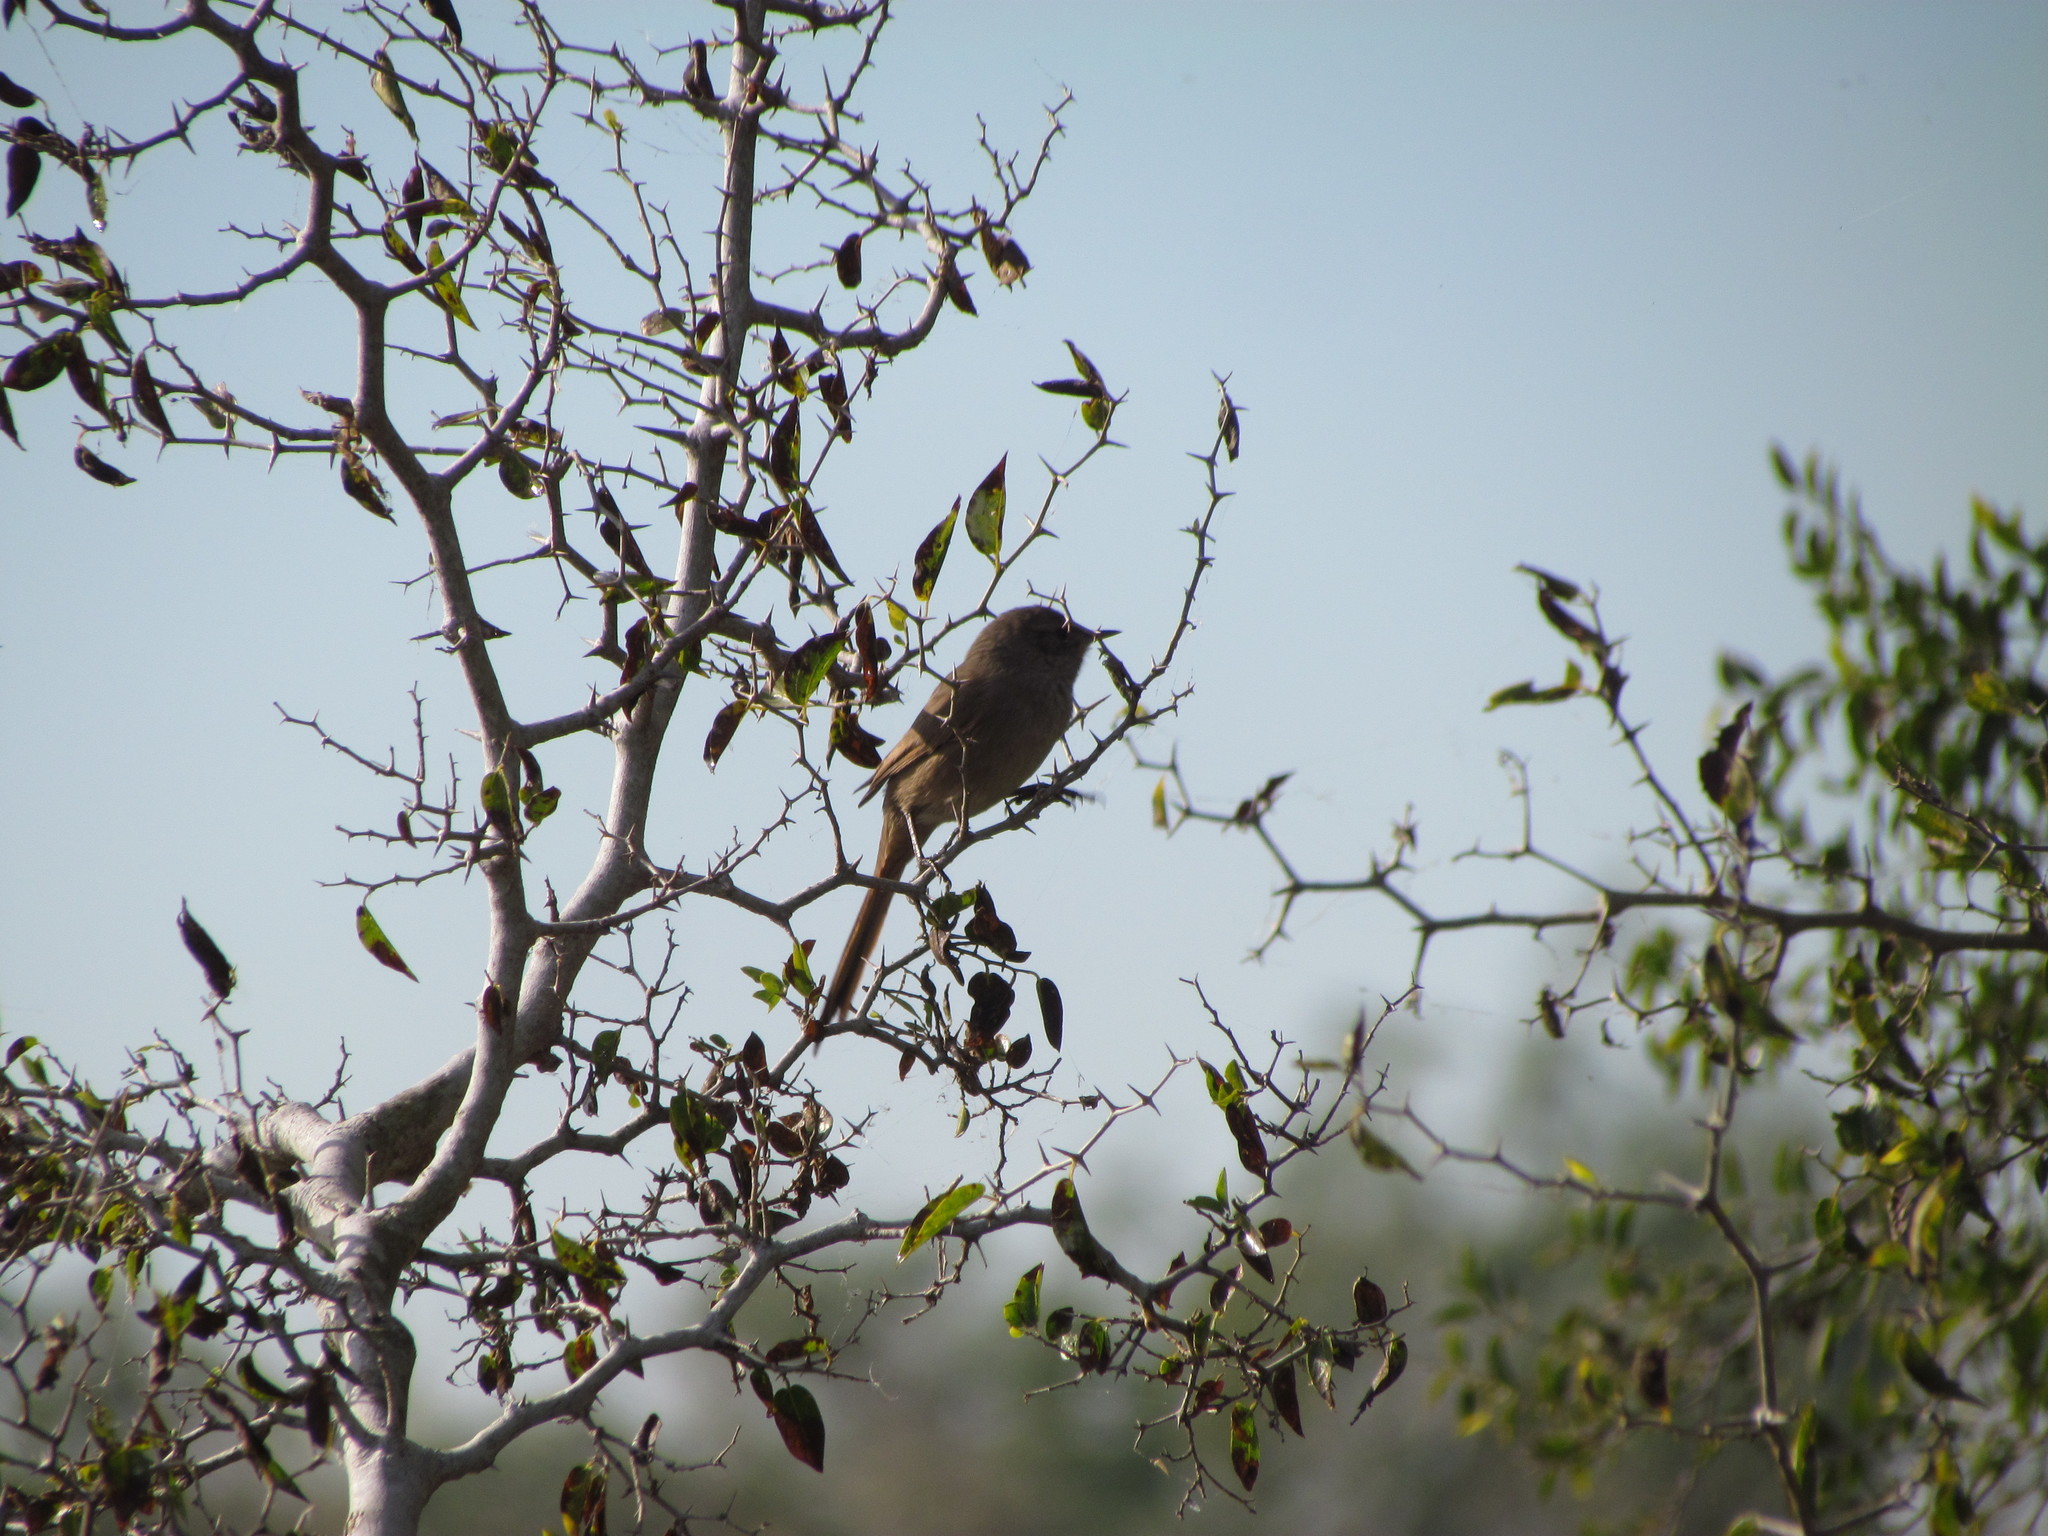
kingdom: Animalia
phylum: Chordata
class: Aves
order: Passeriformes
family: Furnariidae
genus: Asthenes
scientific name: Asthenes pyrrholeuca
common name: Sharp-billed canastero
